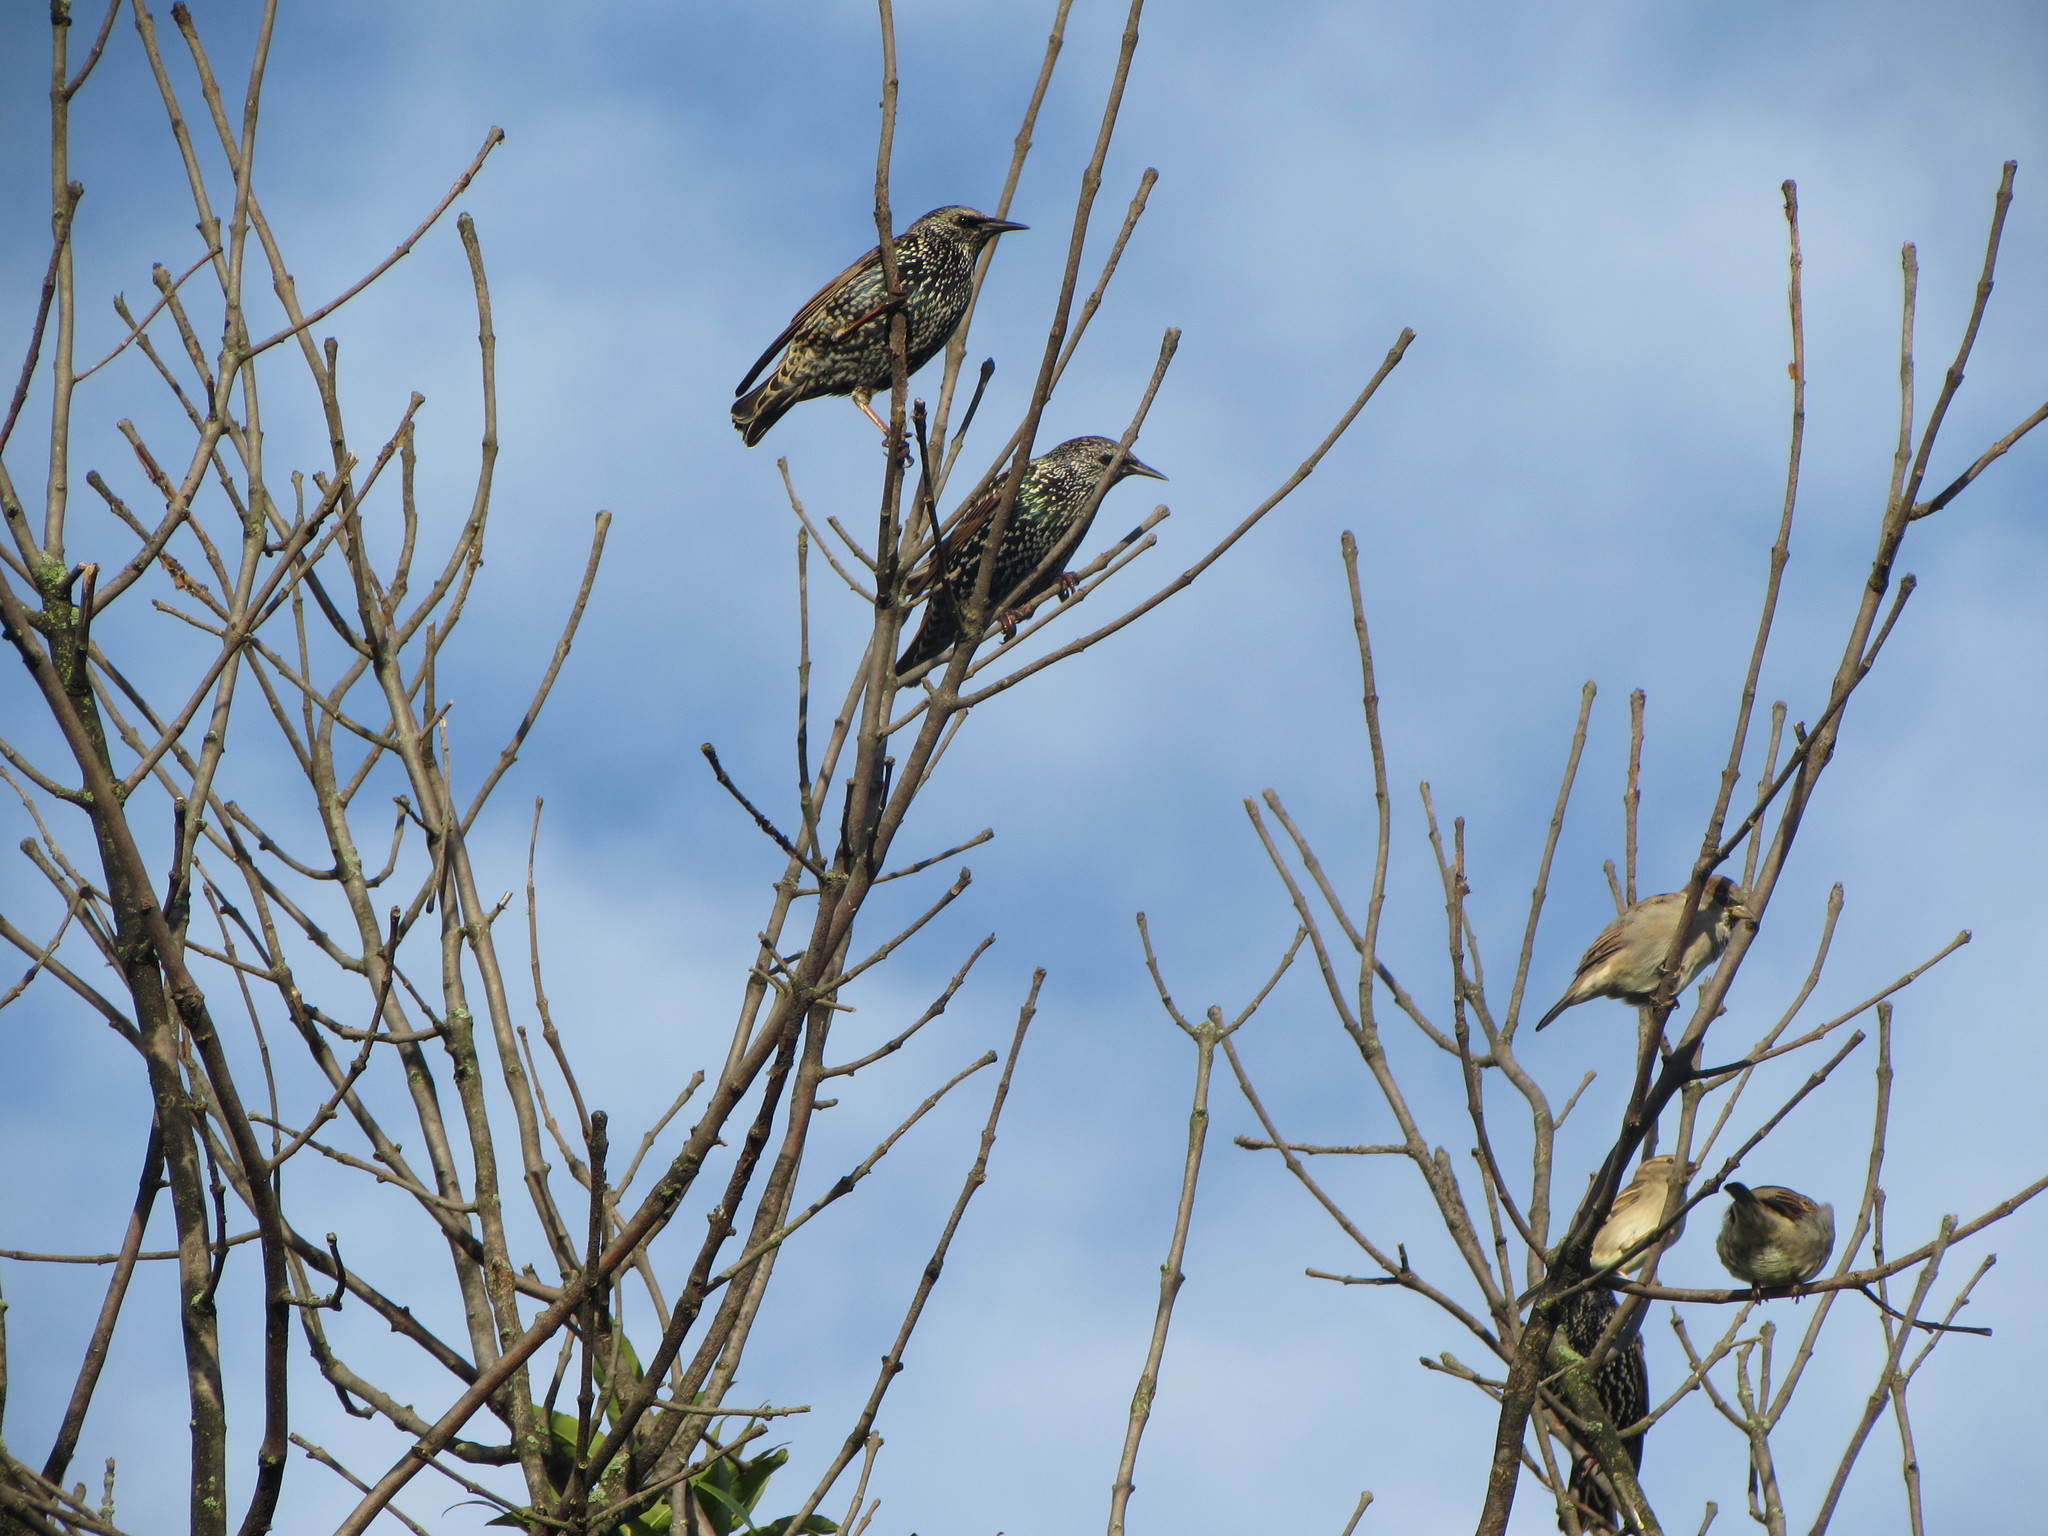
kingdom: Animalia
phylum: Chordata
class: Aves
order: Passeriformes
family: Sturnidae
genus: Sturnus
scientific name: Sturnus vulgaris
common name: Common starling
